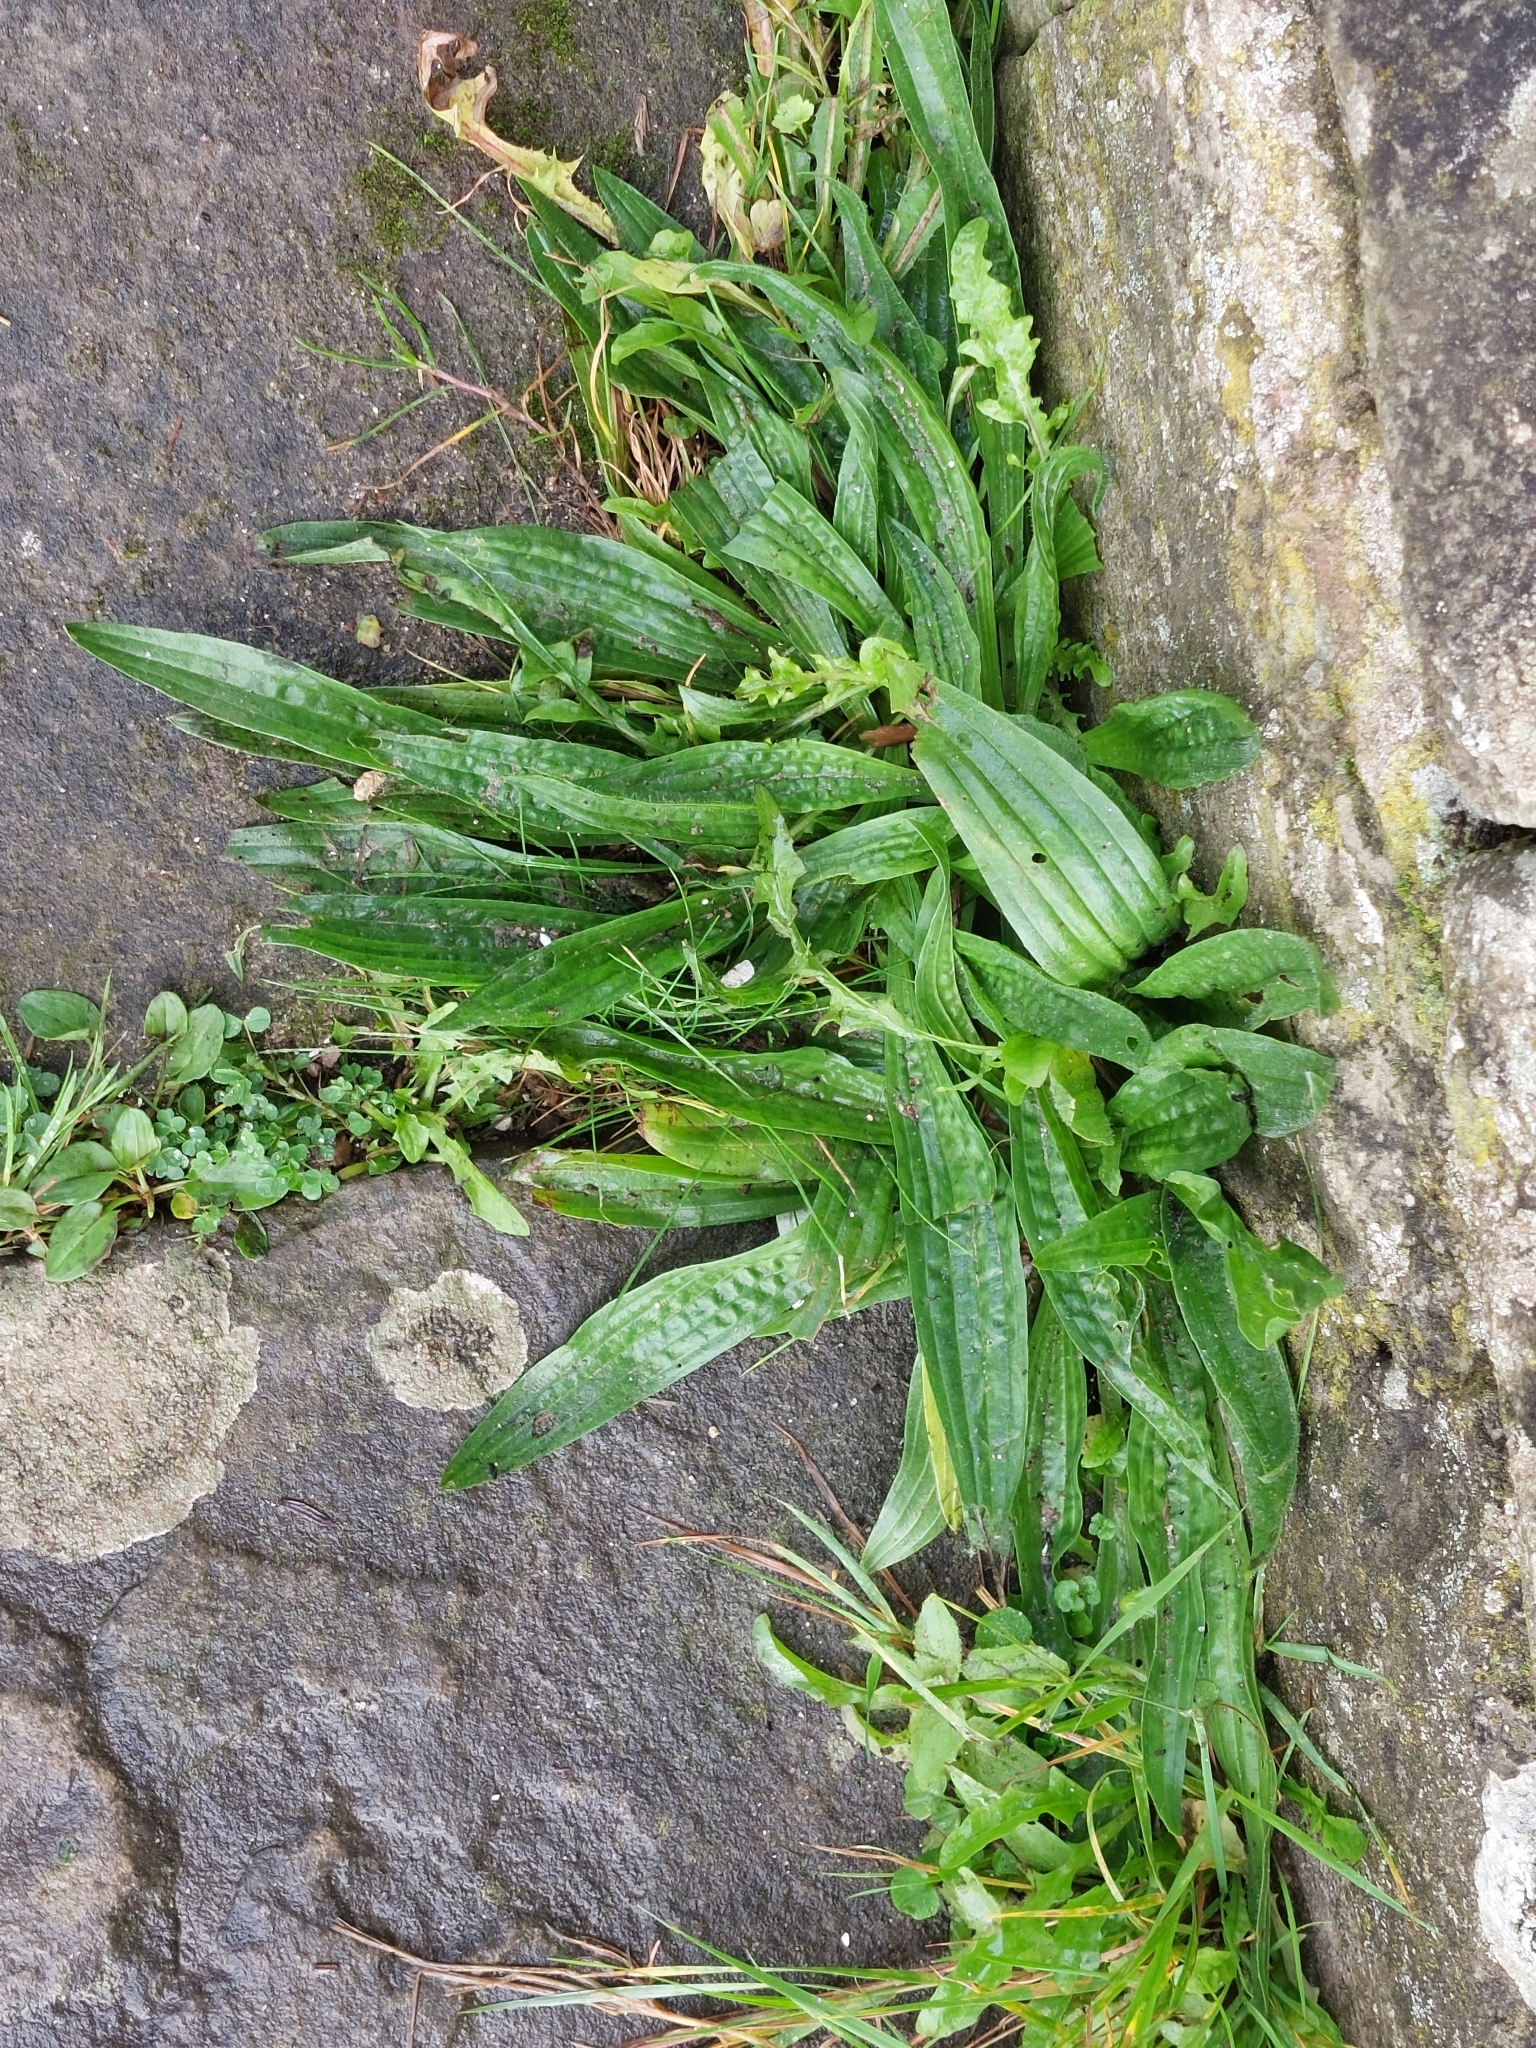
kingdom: Plantae
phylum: Tracheophyta
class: Magnoliopsida
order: Lamiales
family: Plantaginaceae
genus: Plantago
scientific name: Plantago lanceolata
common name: Ribwort plantain
